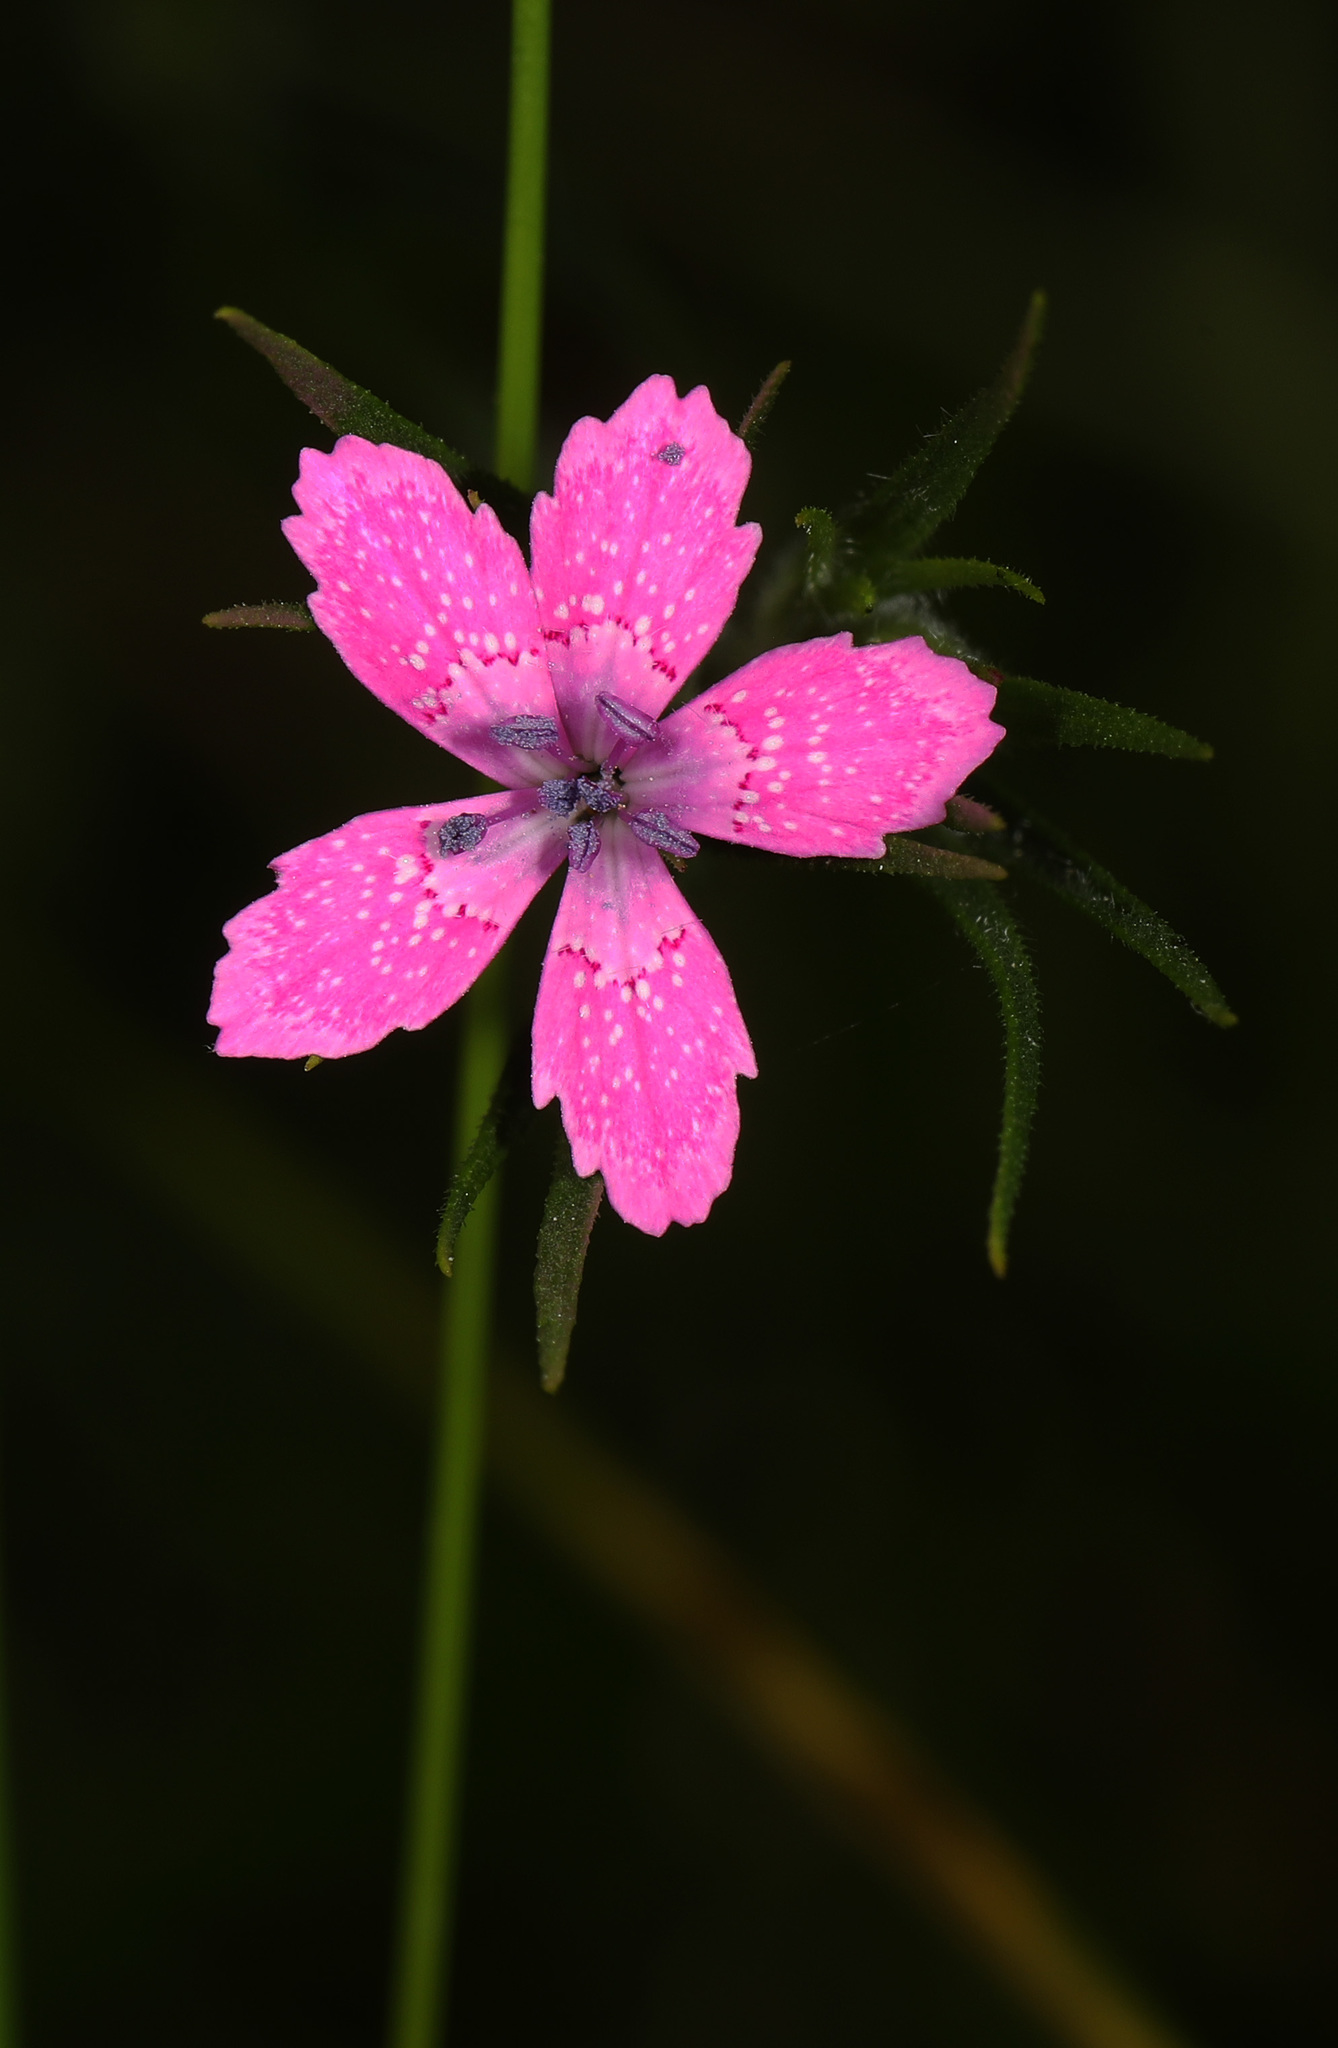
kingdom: Plantae
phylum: Tracheophyta
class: Magnoliopsida
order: Caryophyllales
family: Caryophyllaceae
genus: Dianthus
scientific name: Dianthus armeria
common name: Deptford pink
